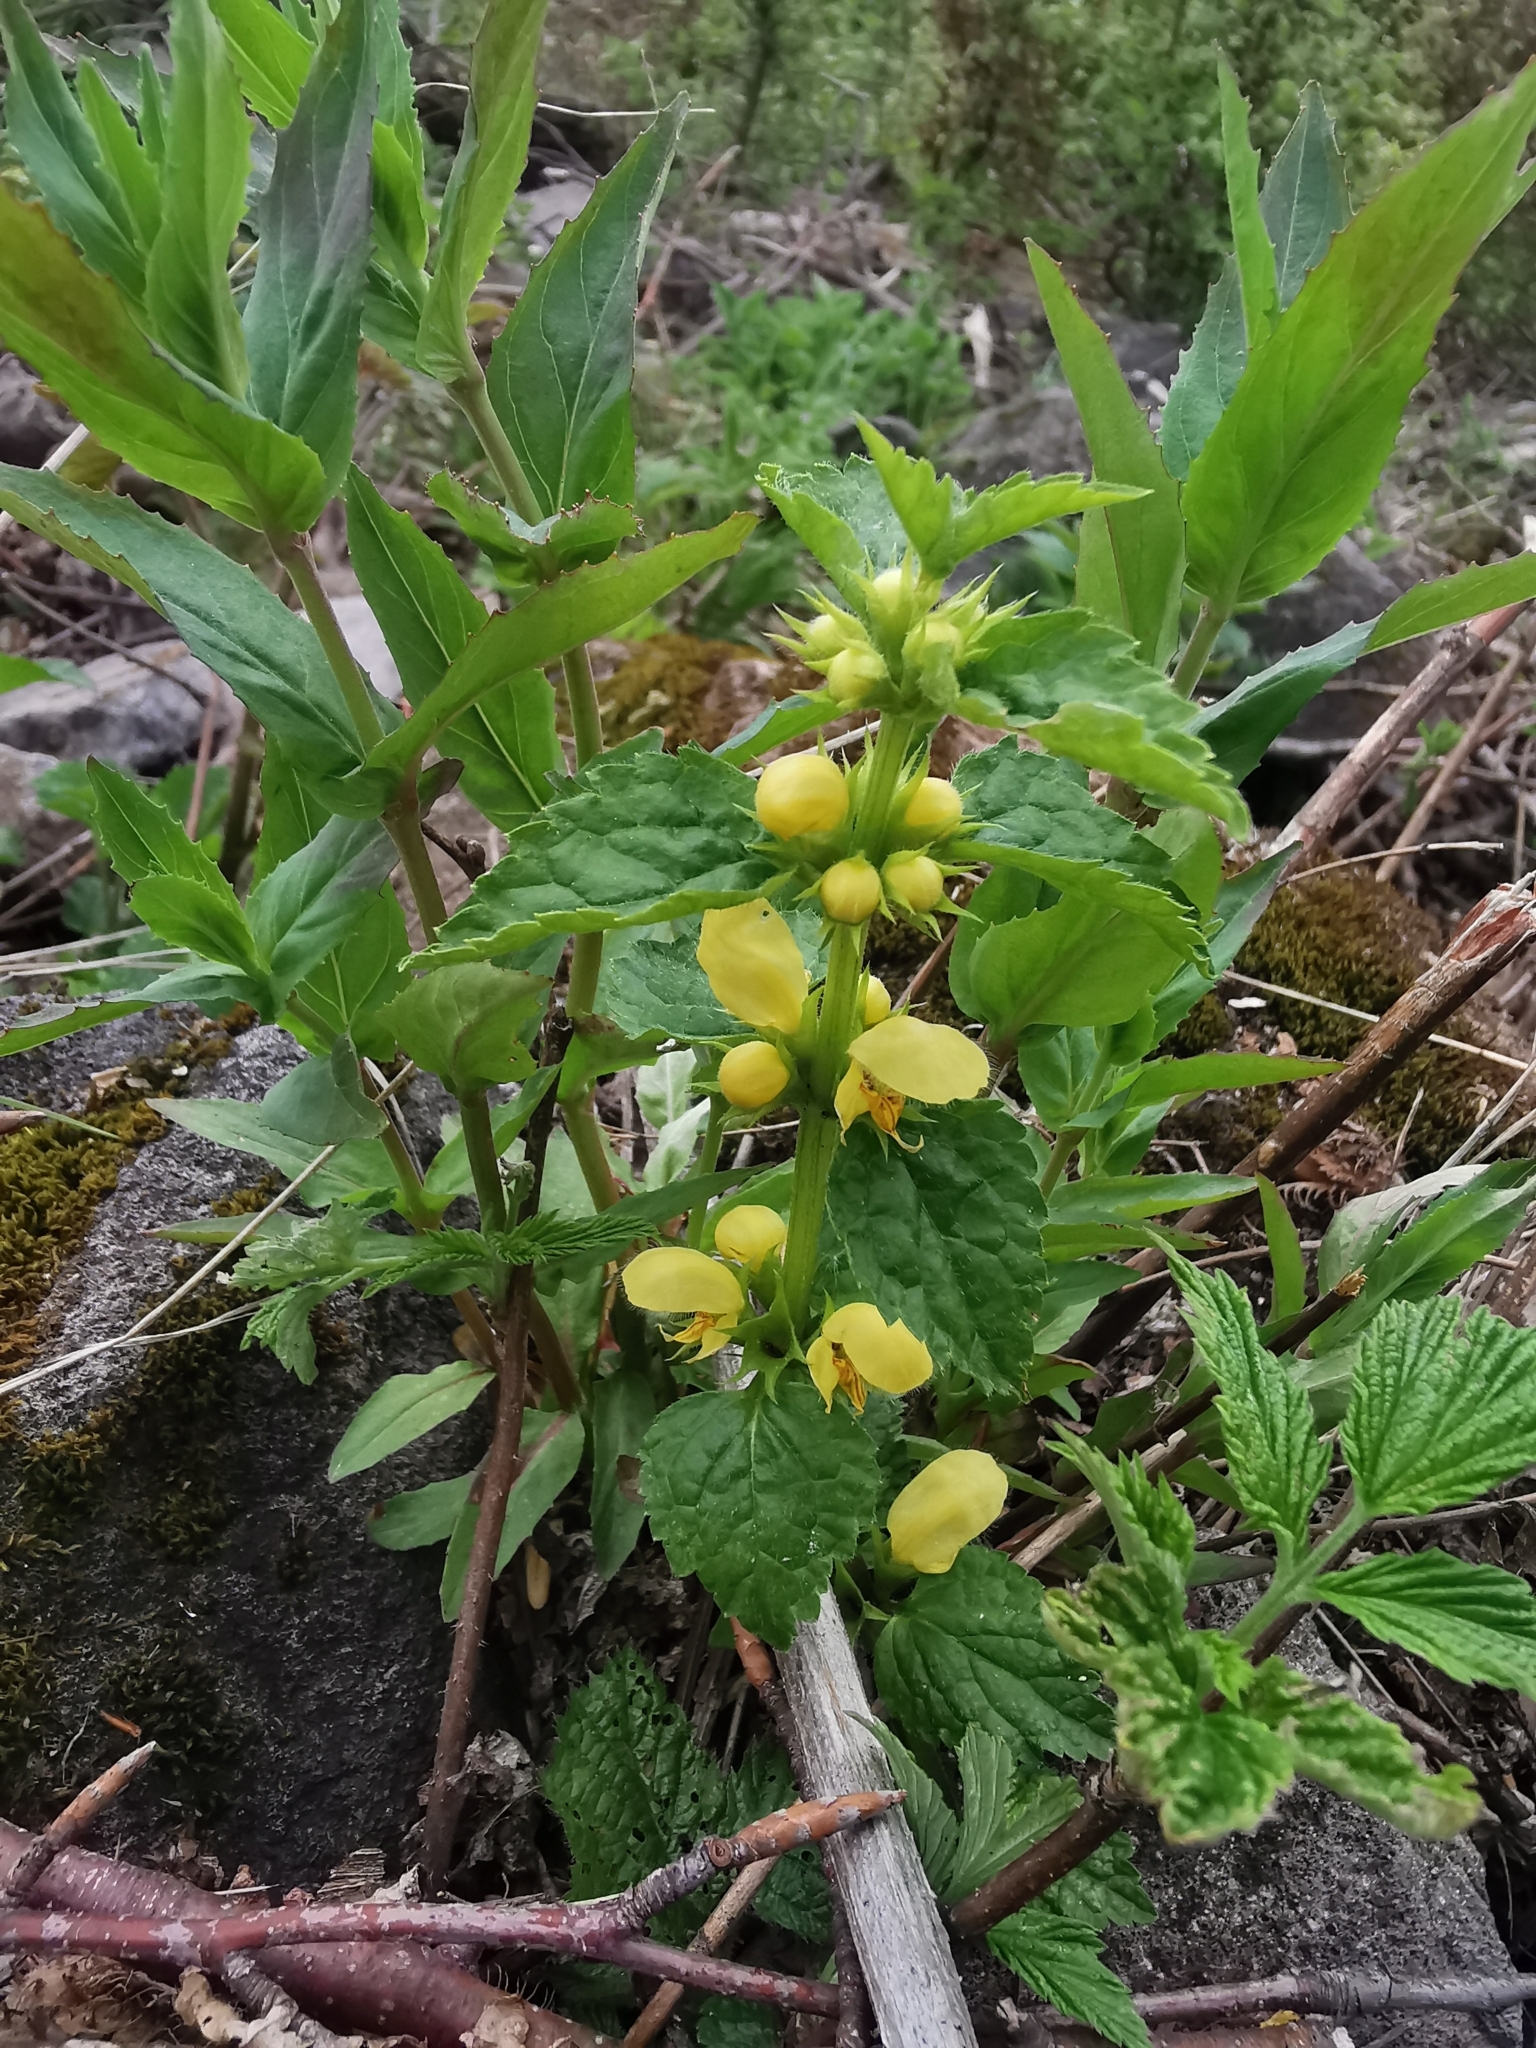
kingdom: Plantae
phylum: Tracheophyta
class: Magnoliopsida
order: Lamiales
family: Lamiaceae
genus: Lamium
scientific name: Lamium galeobdolon
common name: Yellow archangel
